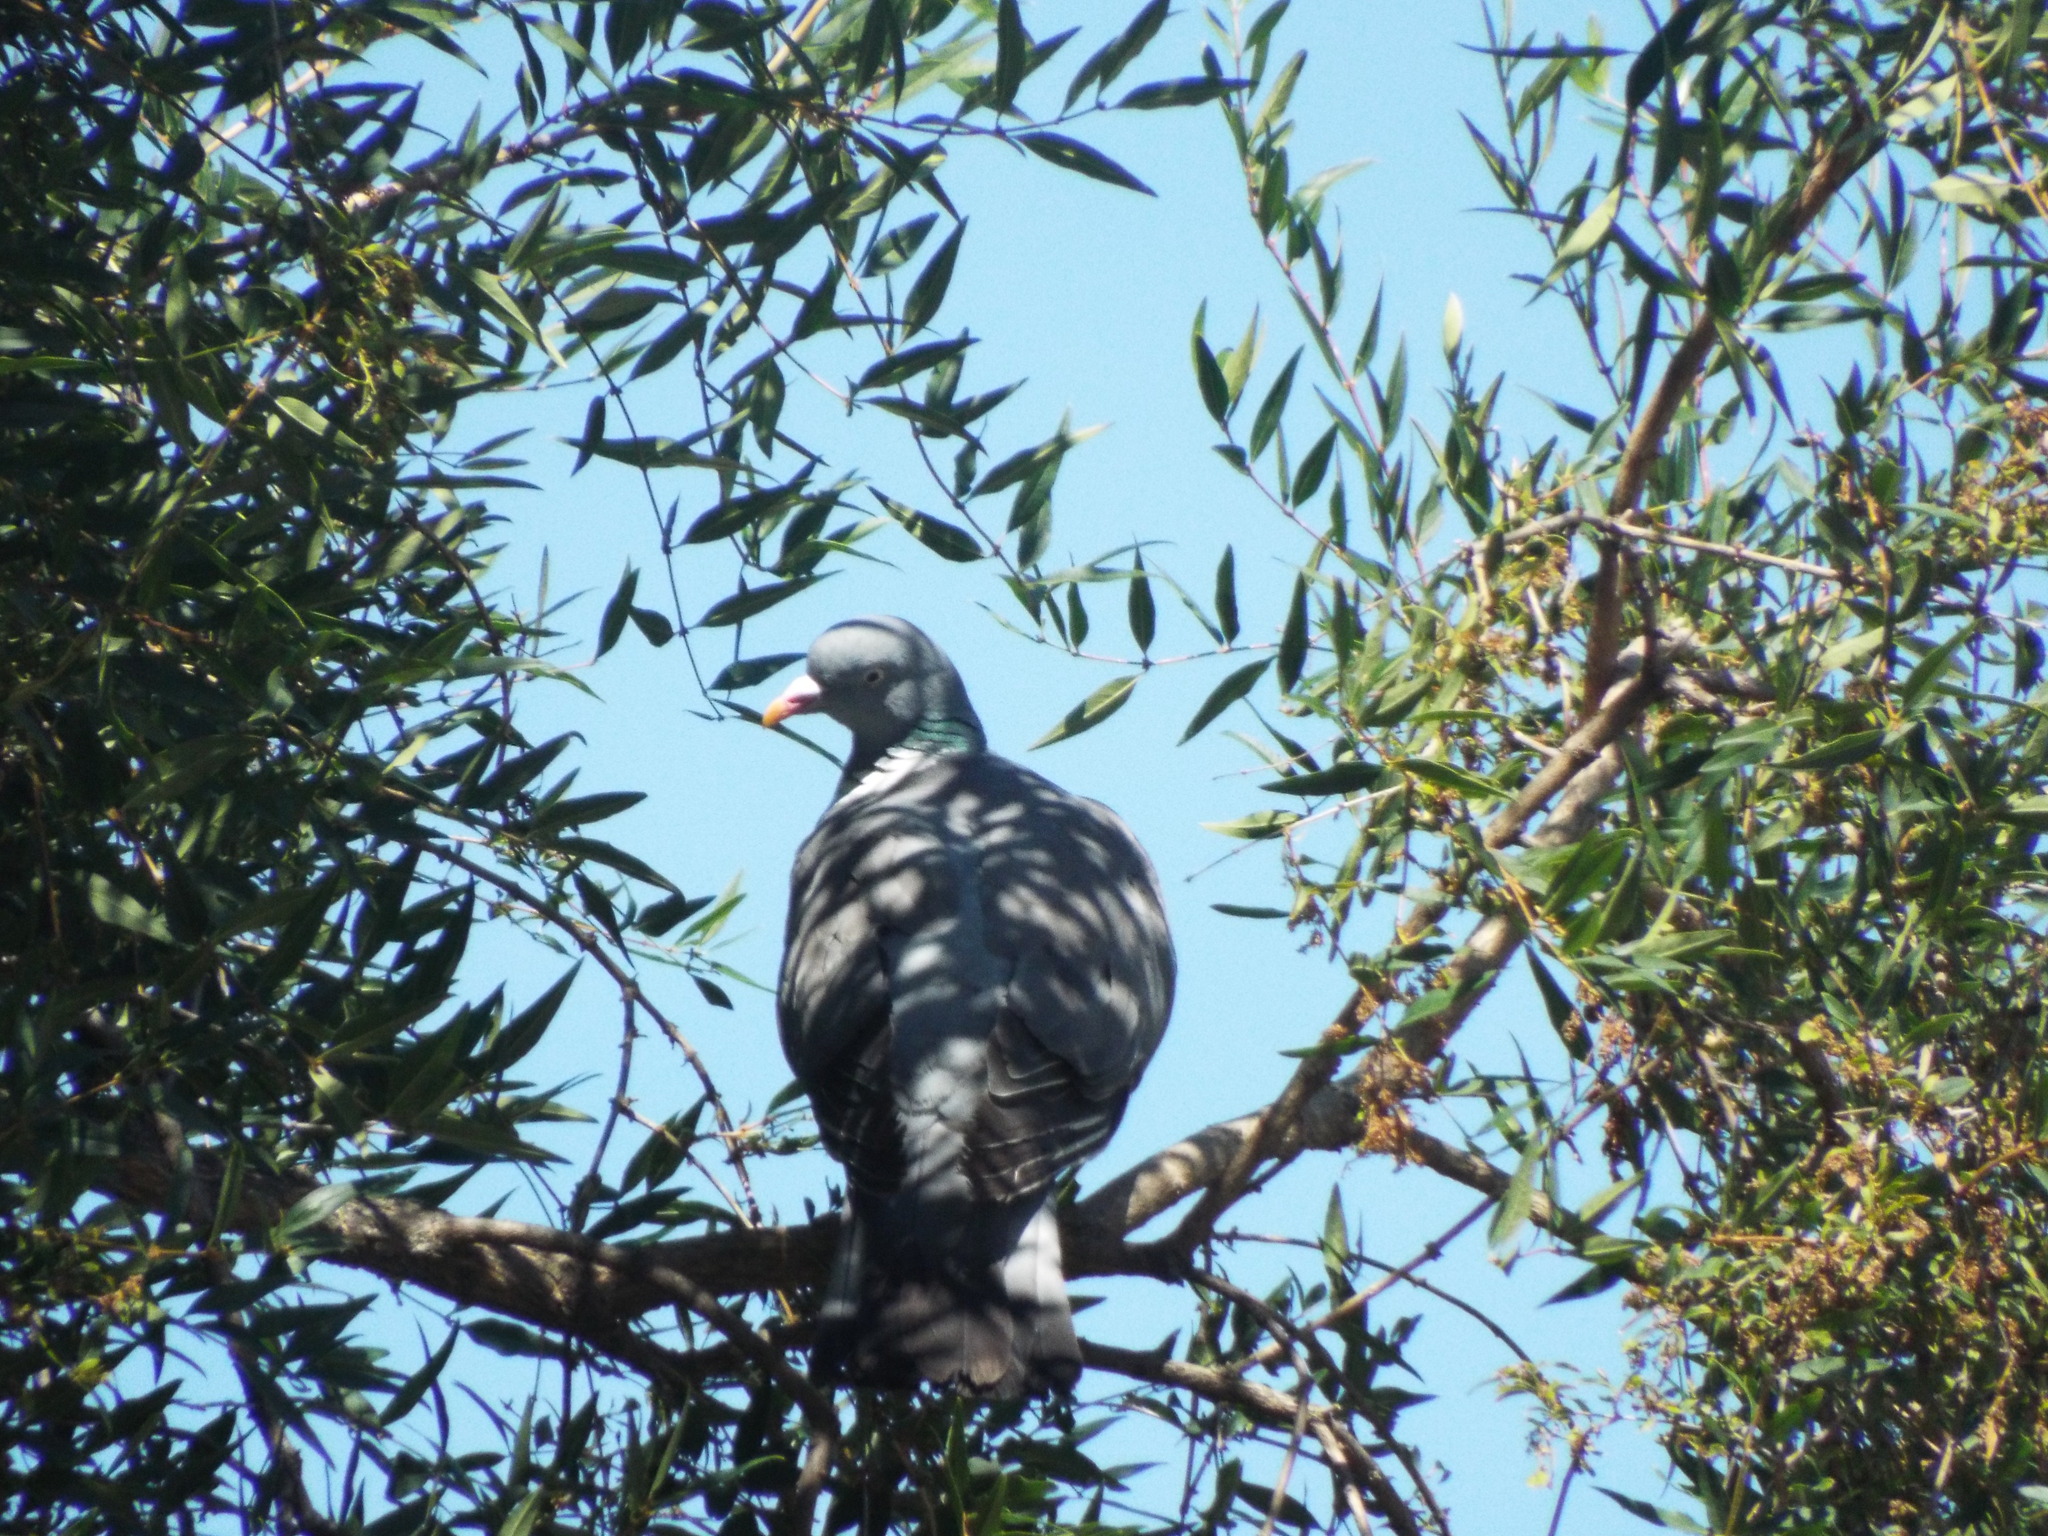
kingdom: Animalia
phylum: Chordata
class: Aves
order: Columbiformes
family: Columbidae
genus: Columba
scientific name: Columba palumbus
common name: Common wood pigeon
